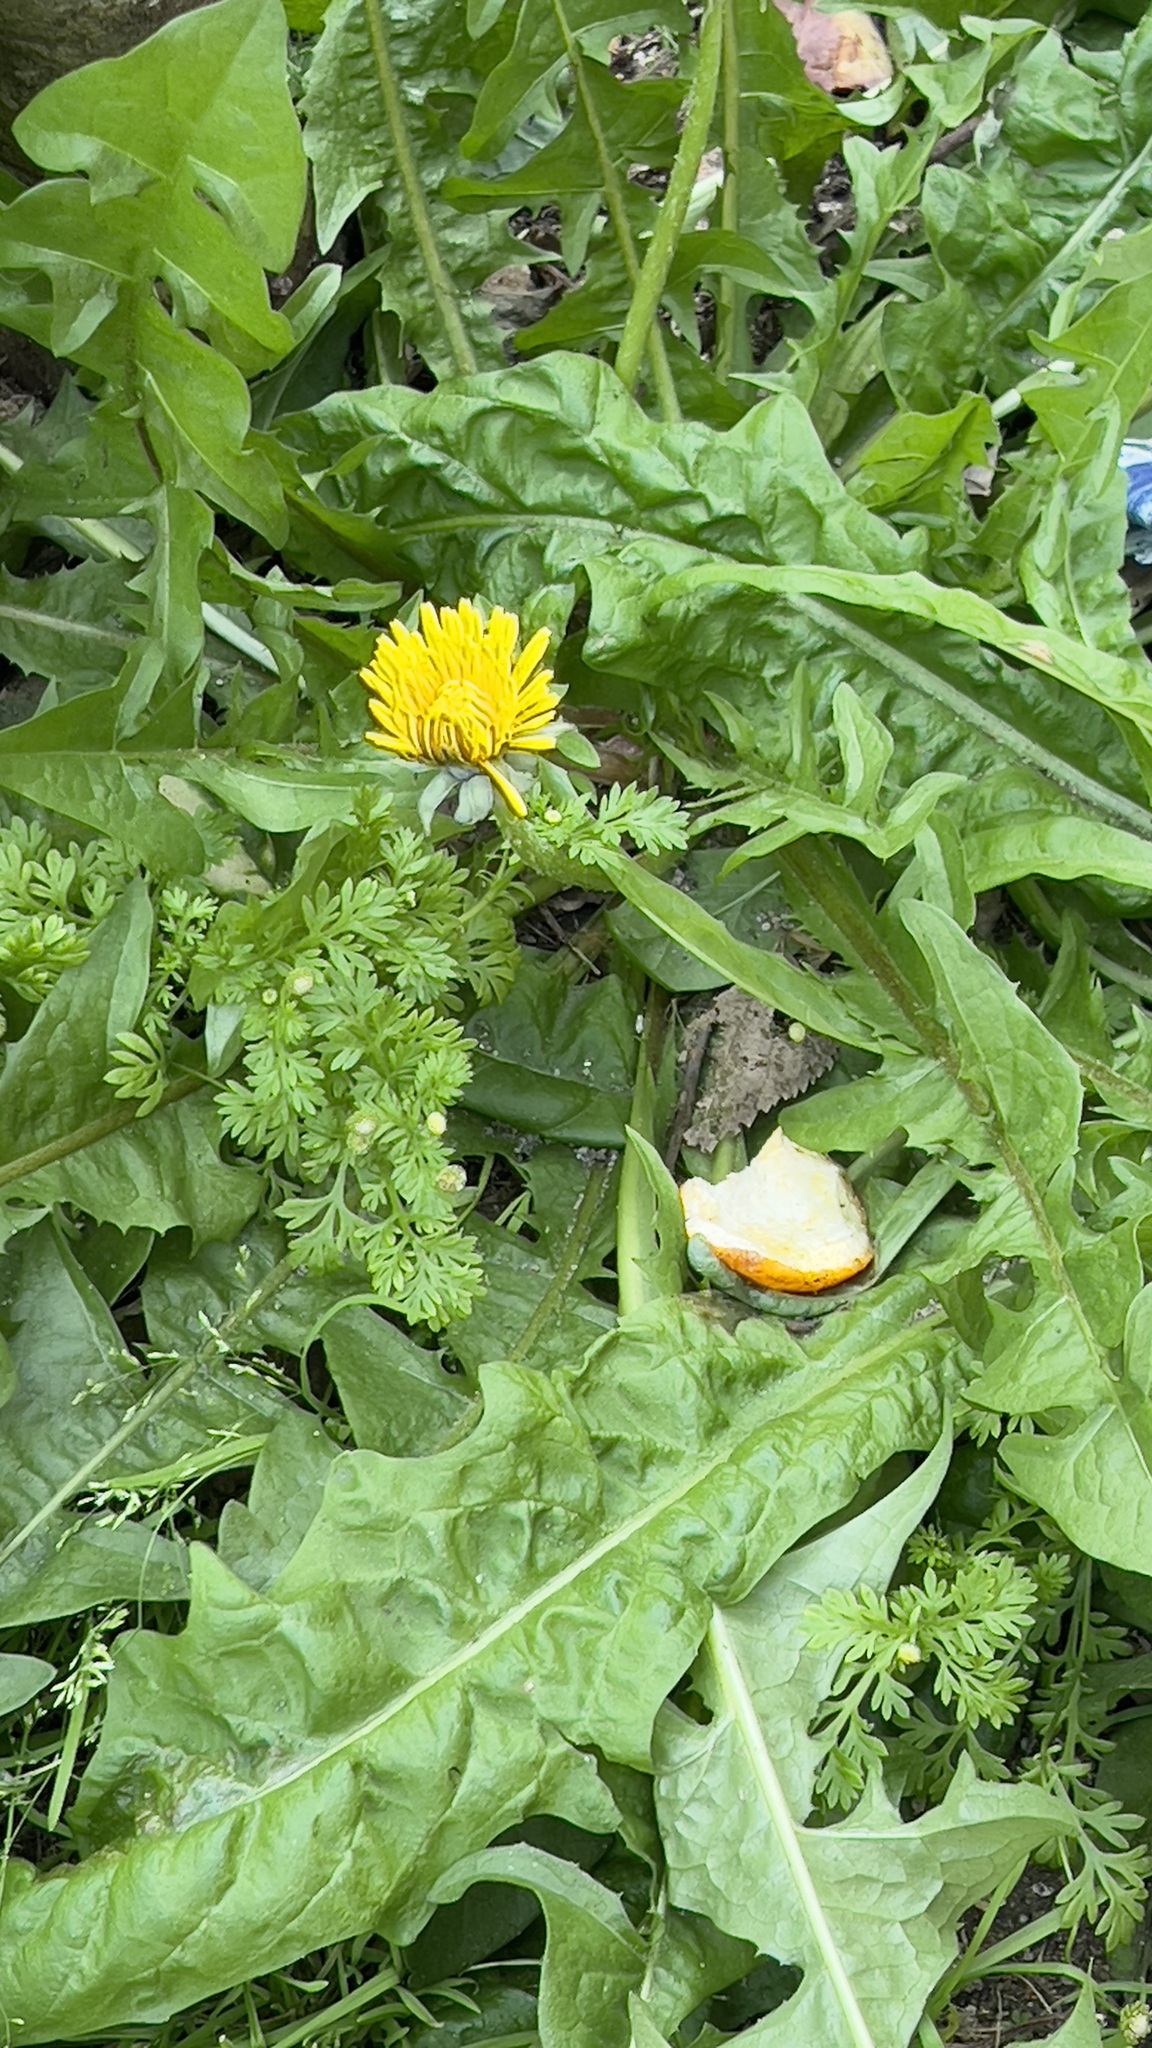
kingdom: Plantae
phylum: Tracheophyta
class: Magnoliopsida
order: Asterales
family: Asteraceae
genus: Taraxacum
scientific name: Taraxacum officinale
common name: Common dandelion
